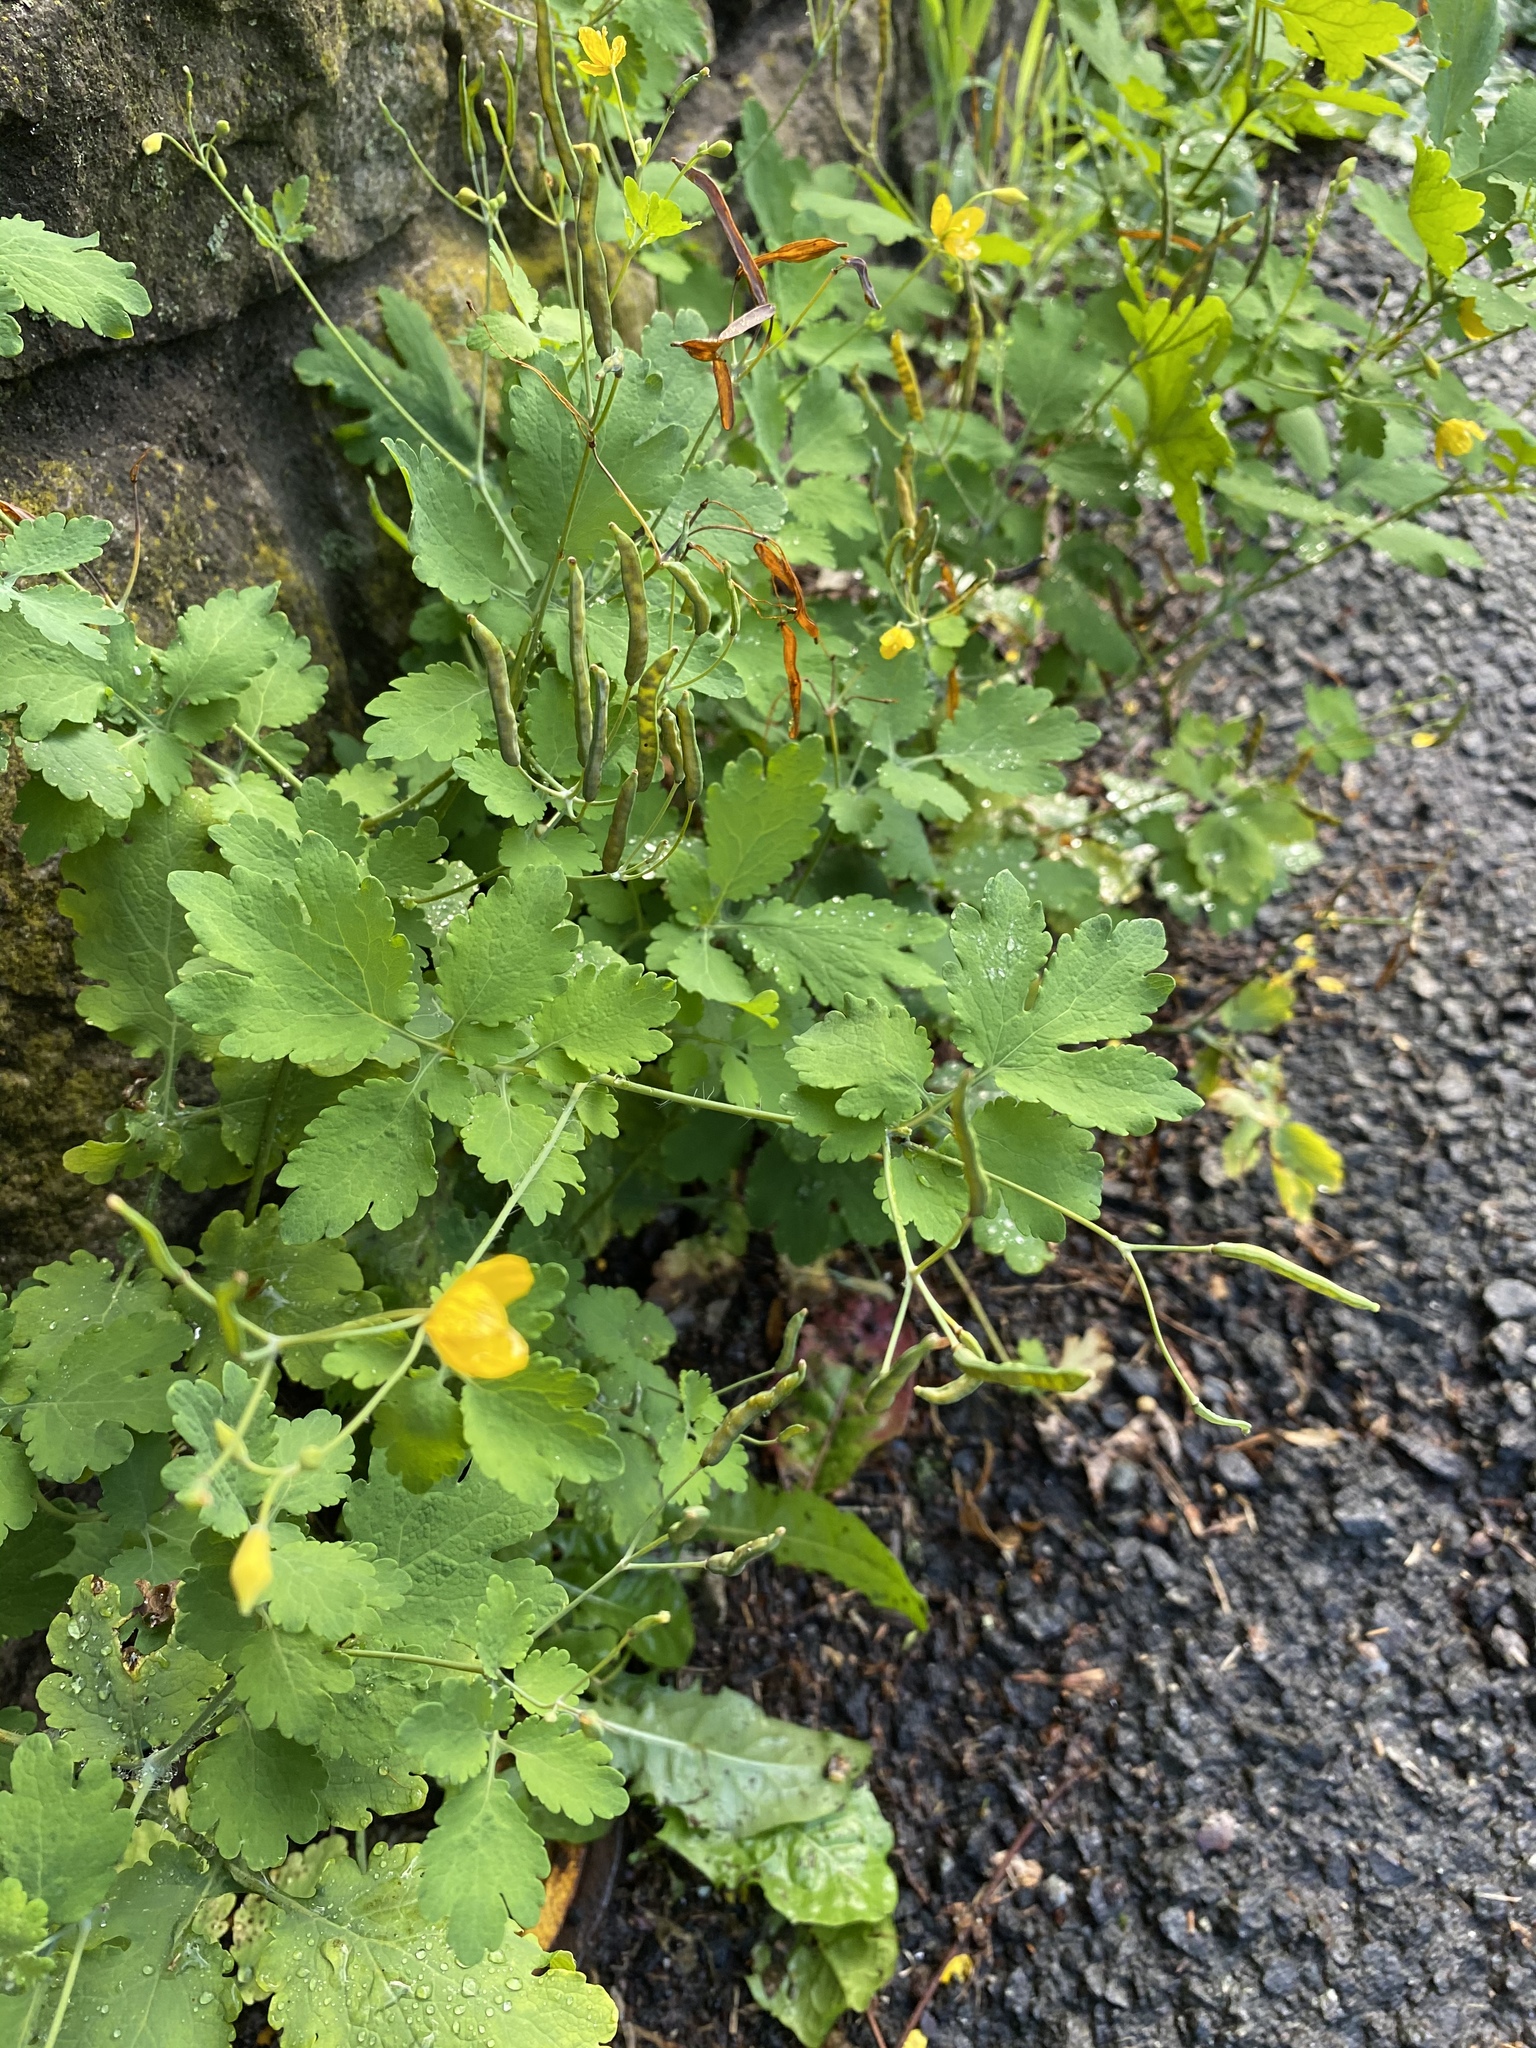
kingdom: Plantae
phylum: Tracheophyta
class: Magnoliopsida
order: Ranunculales
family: Papaveraceae
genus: Chelidonium
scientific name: Chelidonium majus
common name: Greater celandine
